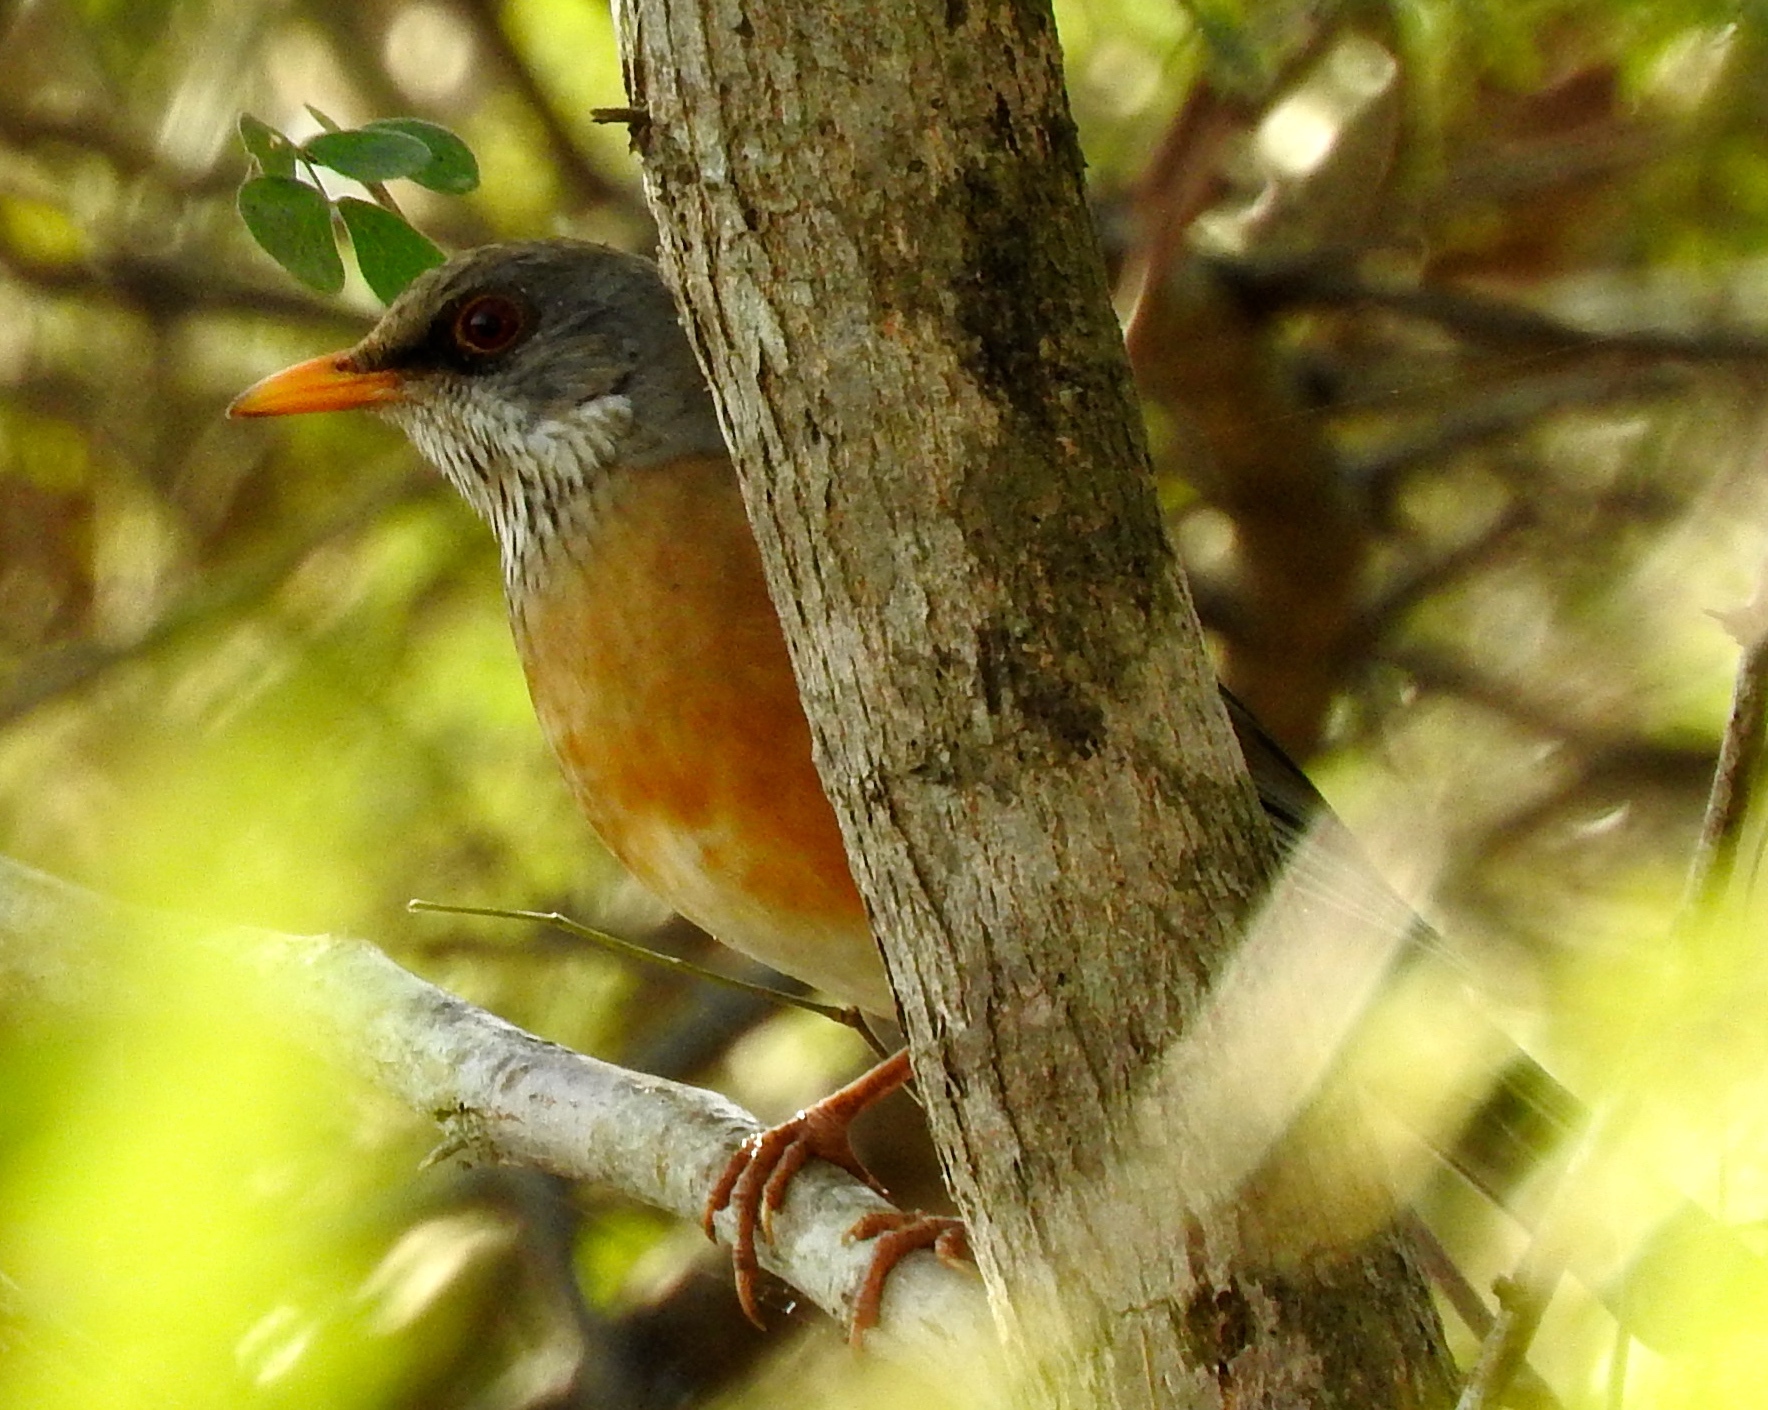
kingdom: Animalia
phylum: Chordata
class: Aves
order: Passeriformes
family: Turdidae
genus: Turdus
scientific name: Turdus rufopalliatus
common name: Rufous-backed robin
